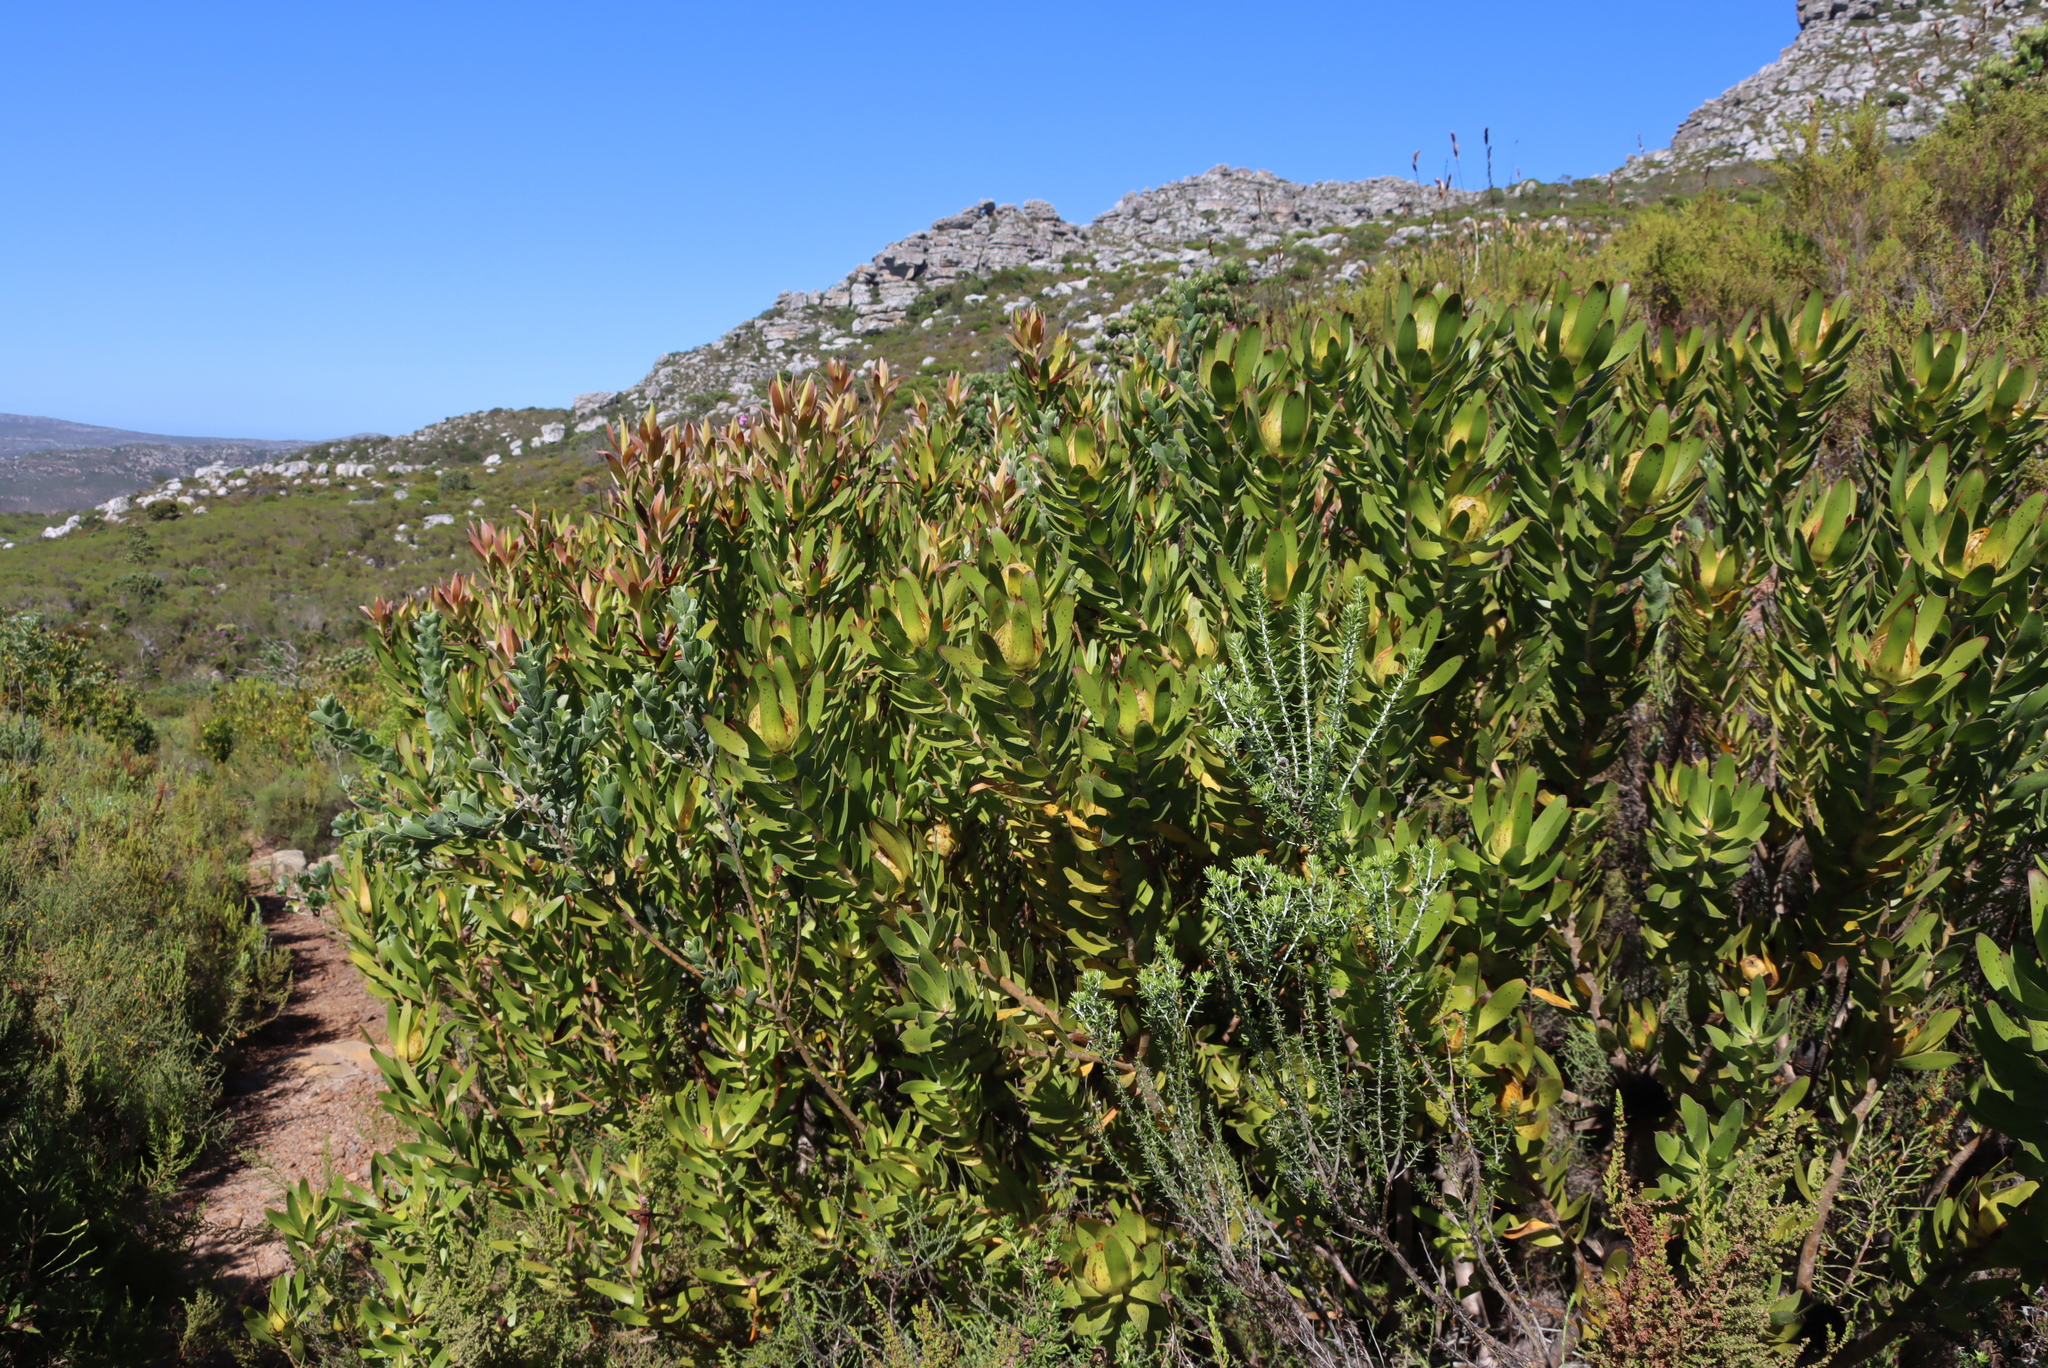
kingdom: Plantae
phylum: Tracheophyta
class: Magnoliopsida
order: Proteales
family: Proteaceae
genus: Leucadendron
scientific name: Leucadendron laureolum
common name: Golden sunshinebush
